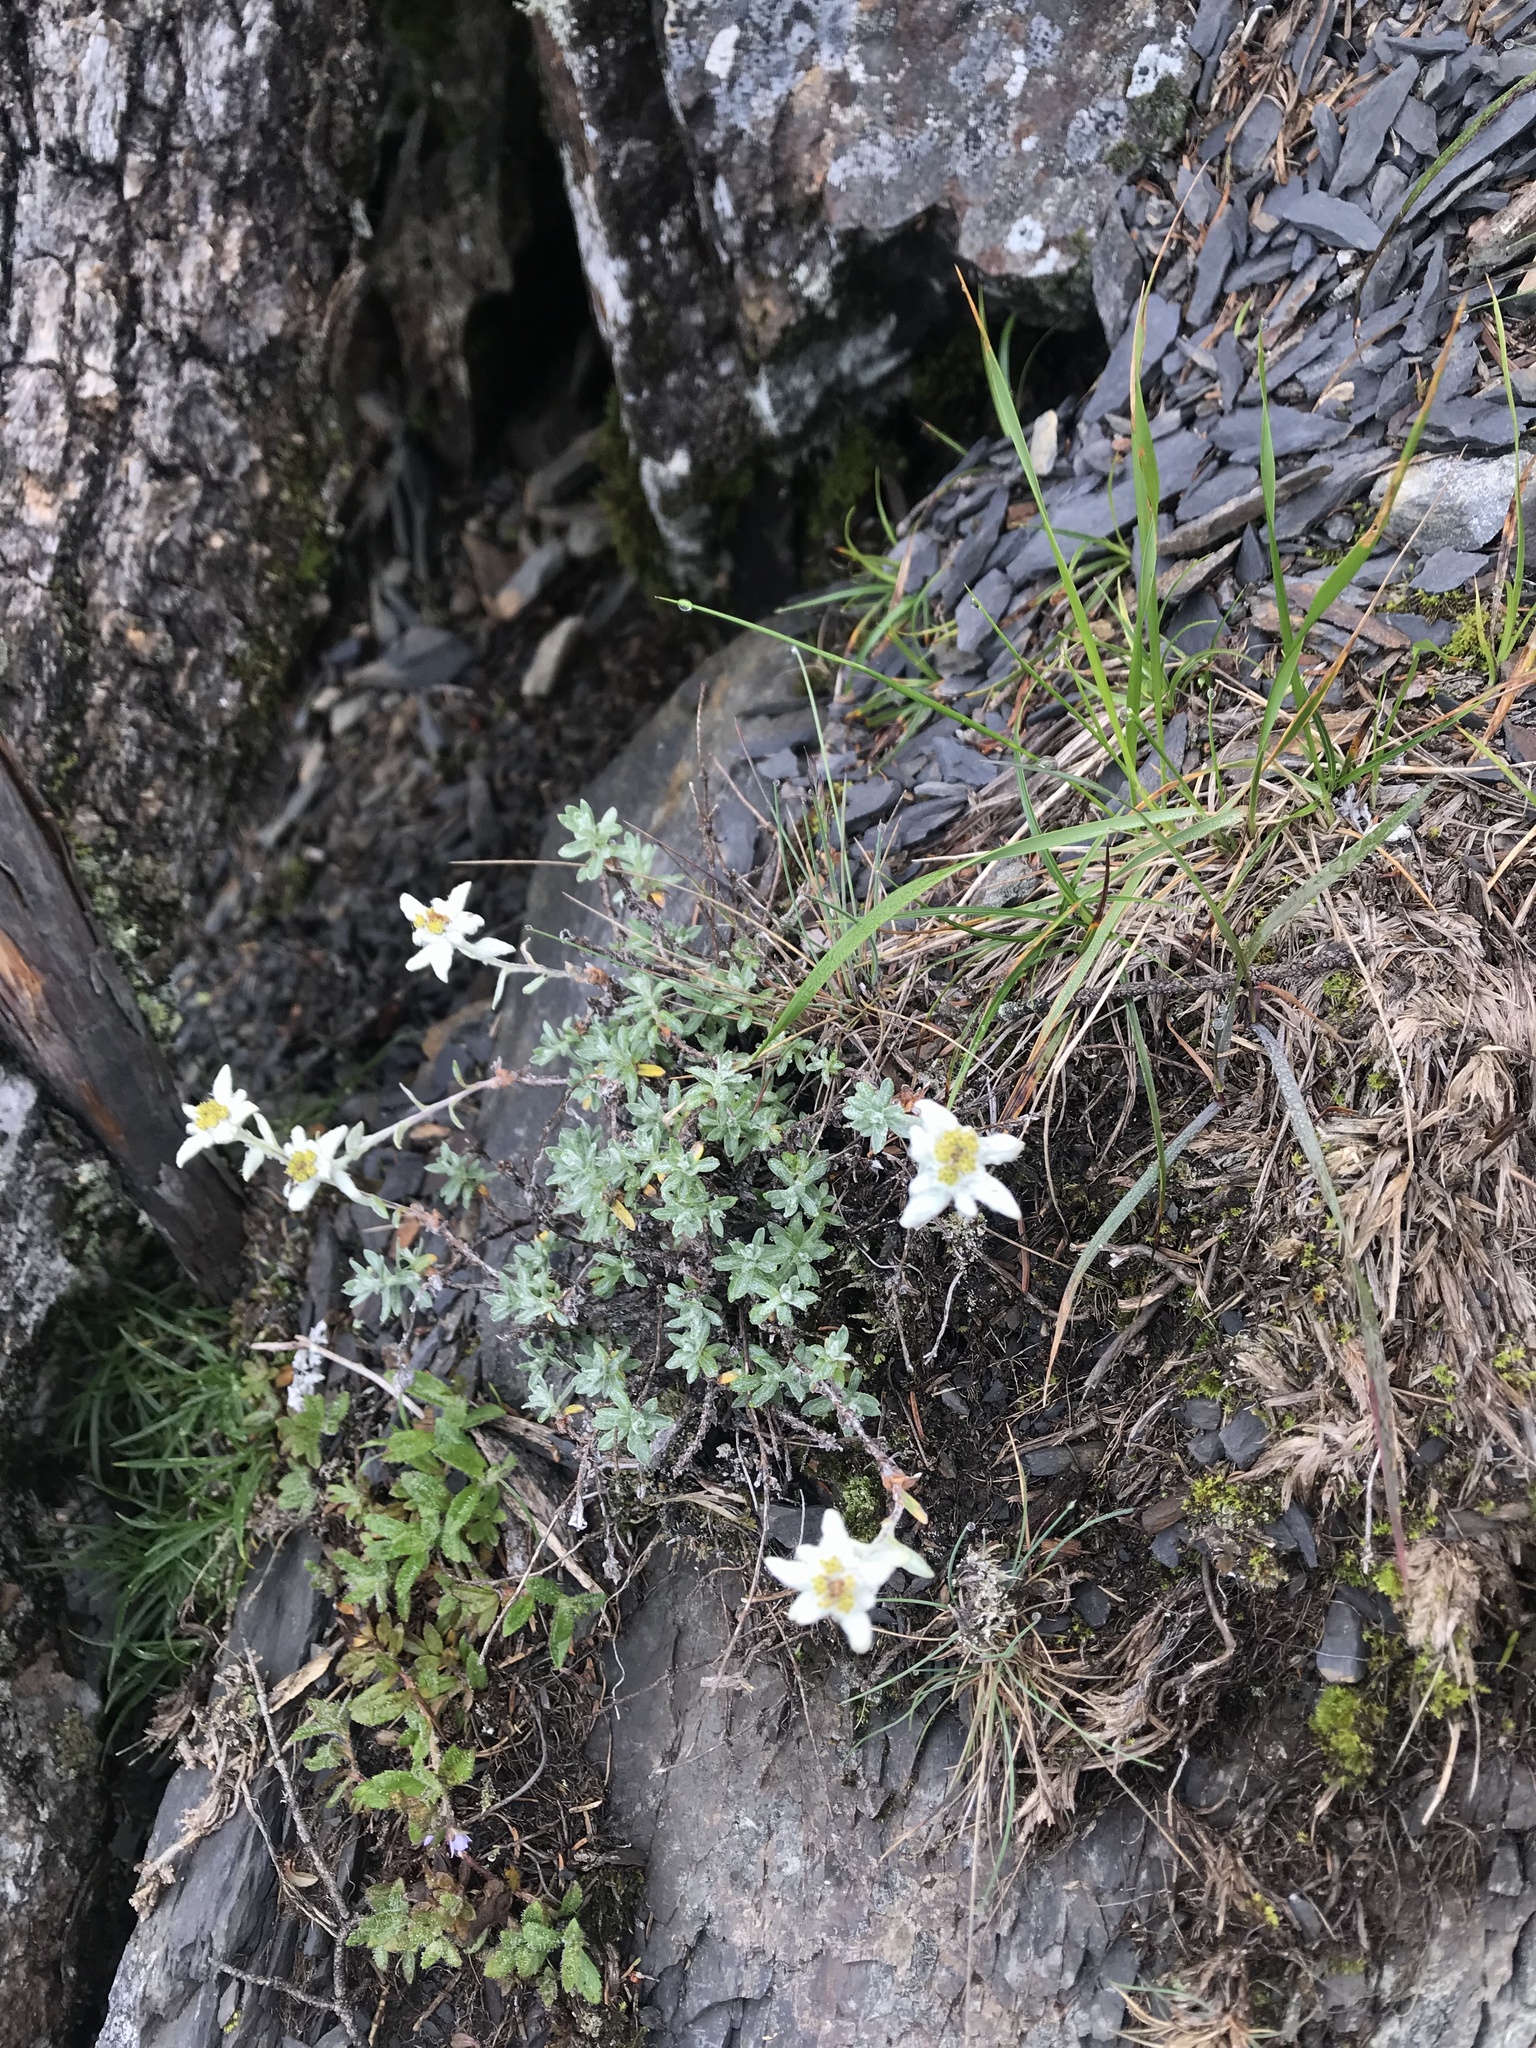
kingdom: Plantae
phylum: Tracheophyta
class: Magnoliopsida
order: Asterales
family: Asteraceae
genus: Leontopodium
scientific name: Leontopodium microphyllum
